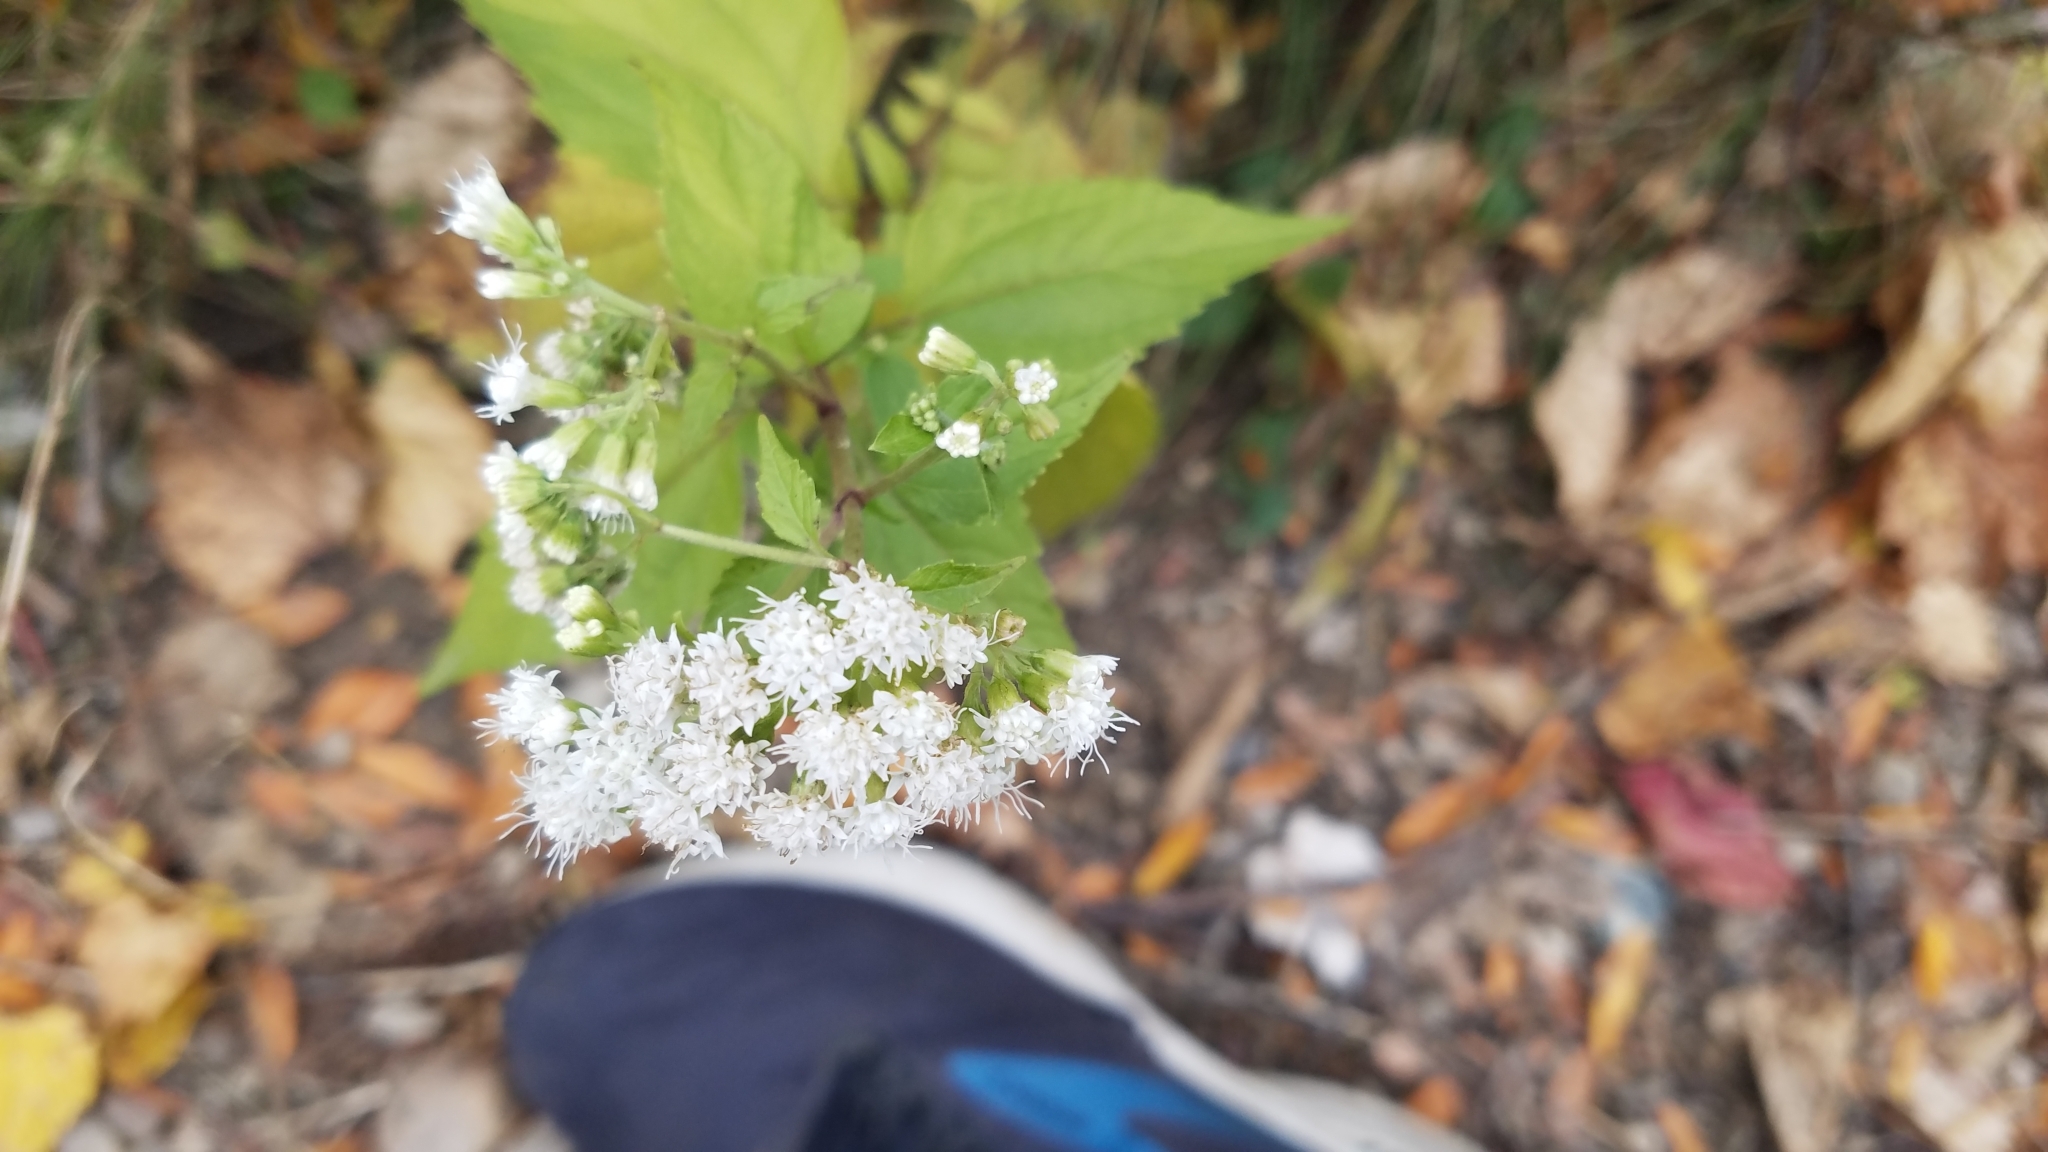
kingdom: Plantae
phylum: Tracheophyta
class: Magnoliopsida
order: Asterales
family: Asteraceae
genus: Ageratina
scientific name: Ageratina altissima
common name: White snakeroot
